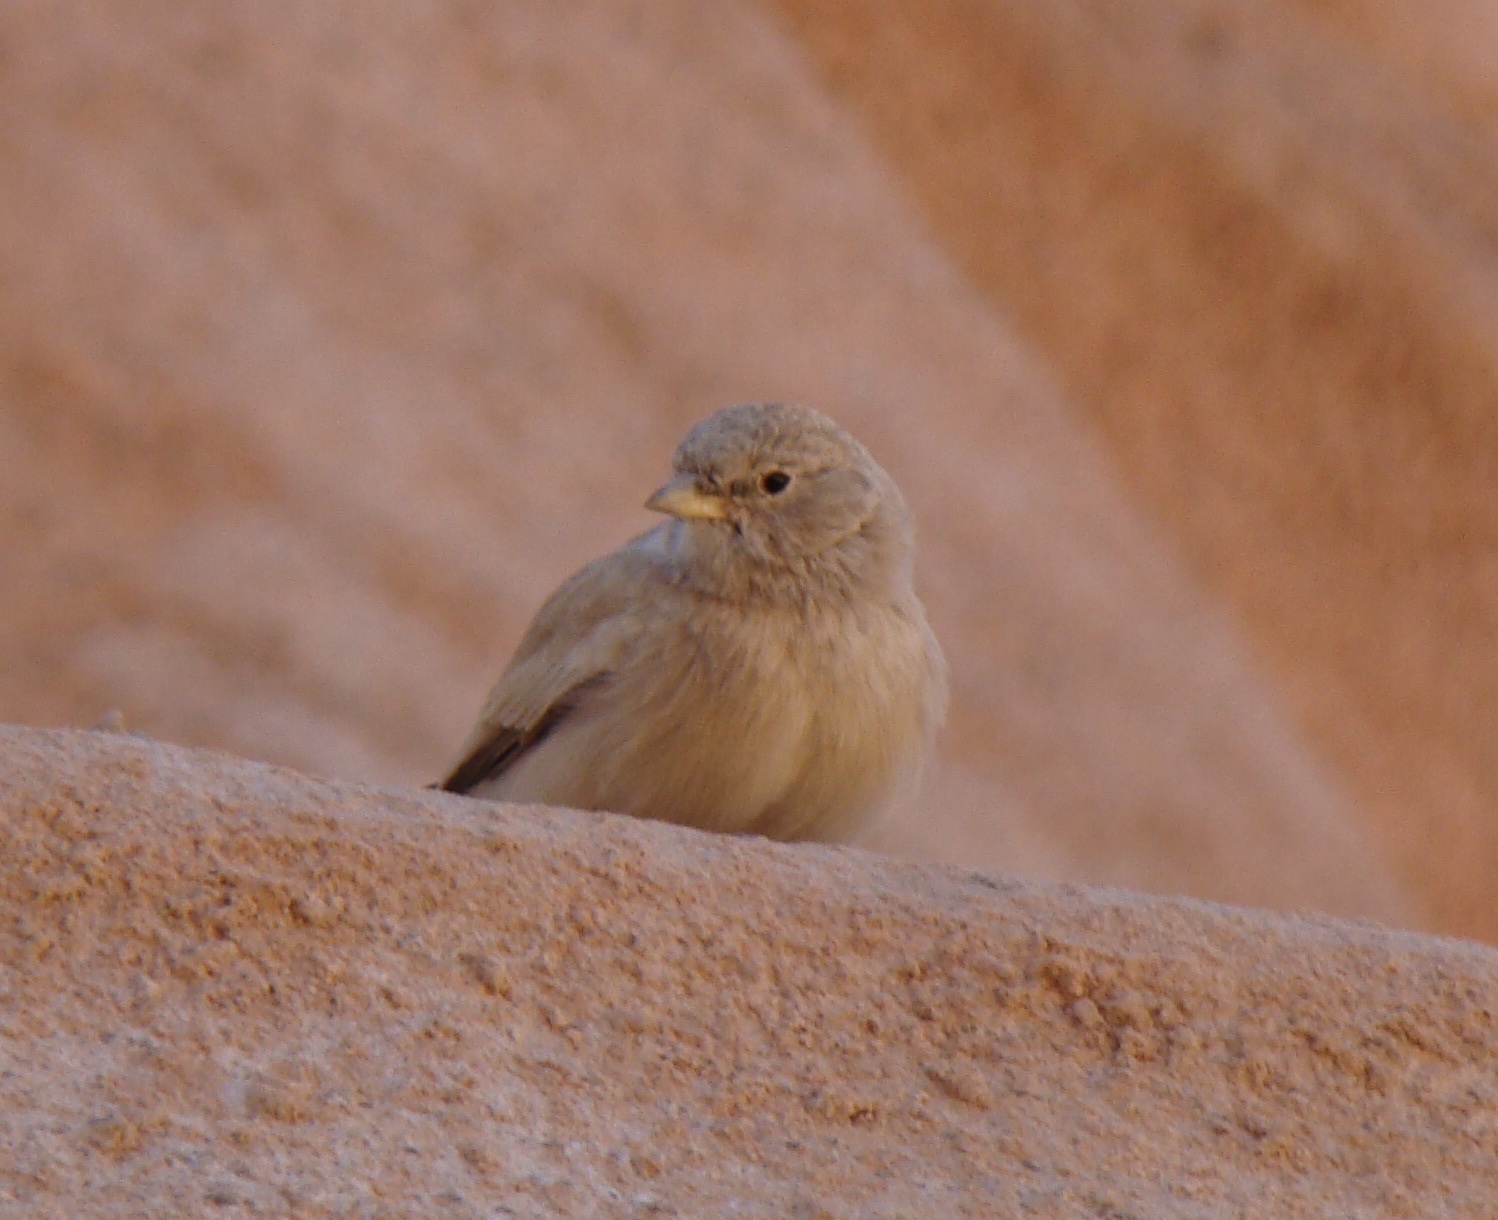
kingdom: Animalia
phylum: Chordata
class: Aves
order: Passeriformes
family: Alaudidae
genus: Ammomanes
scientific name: Ammomanes deserti
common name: Desert lark
